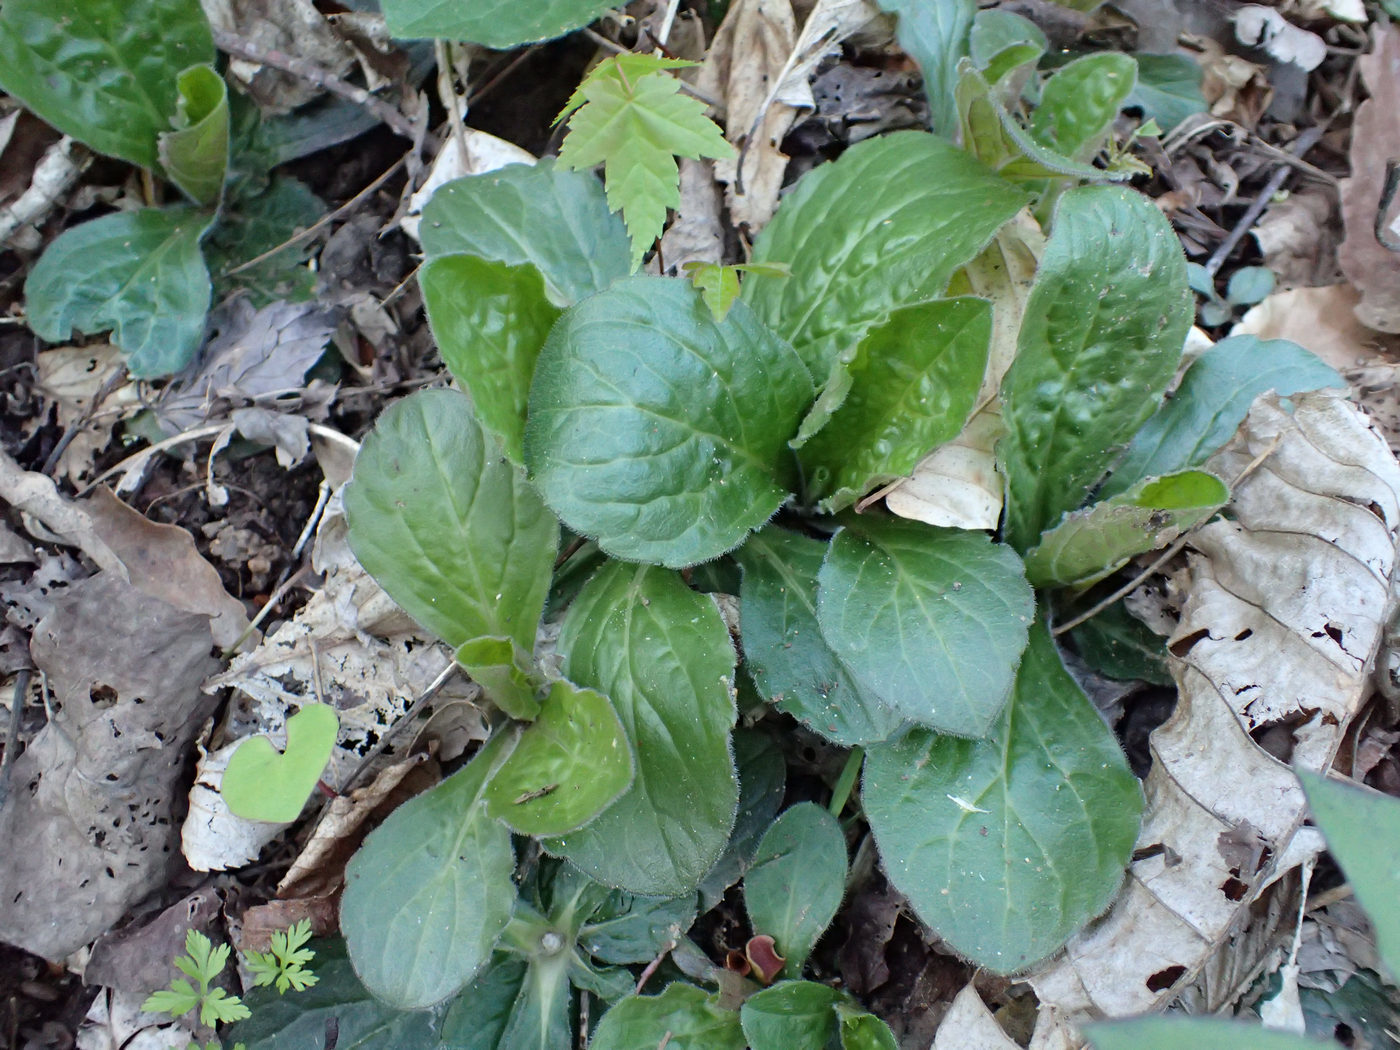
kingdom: Plantae
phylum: Tracheophyta
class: Magnoliopsida
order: Asterales
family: Asteraceae
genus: Erigeron
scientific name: Erigeron pulchellus
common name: Hairy fleabane
